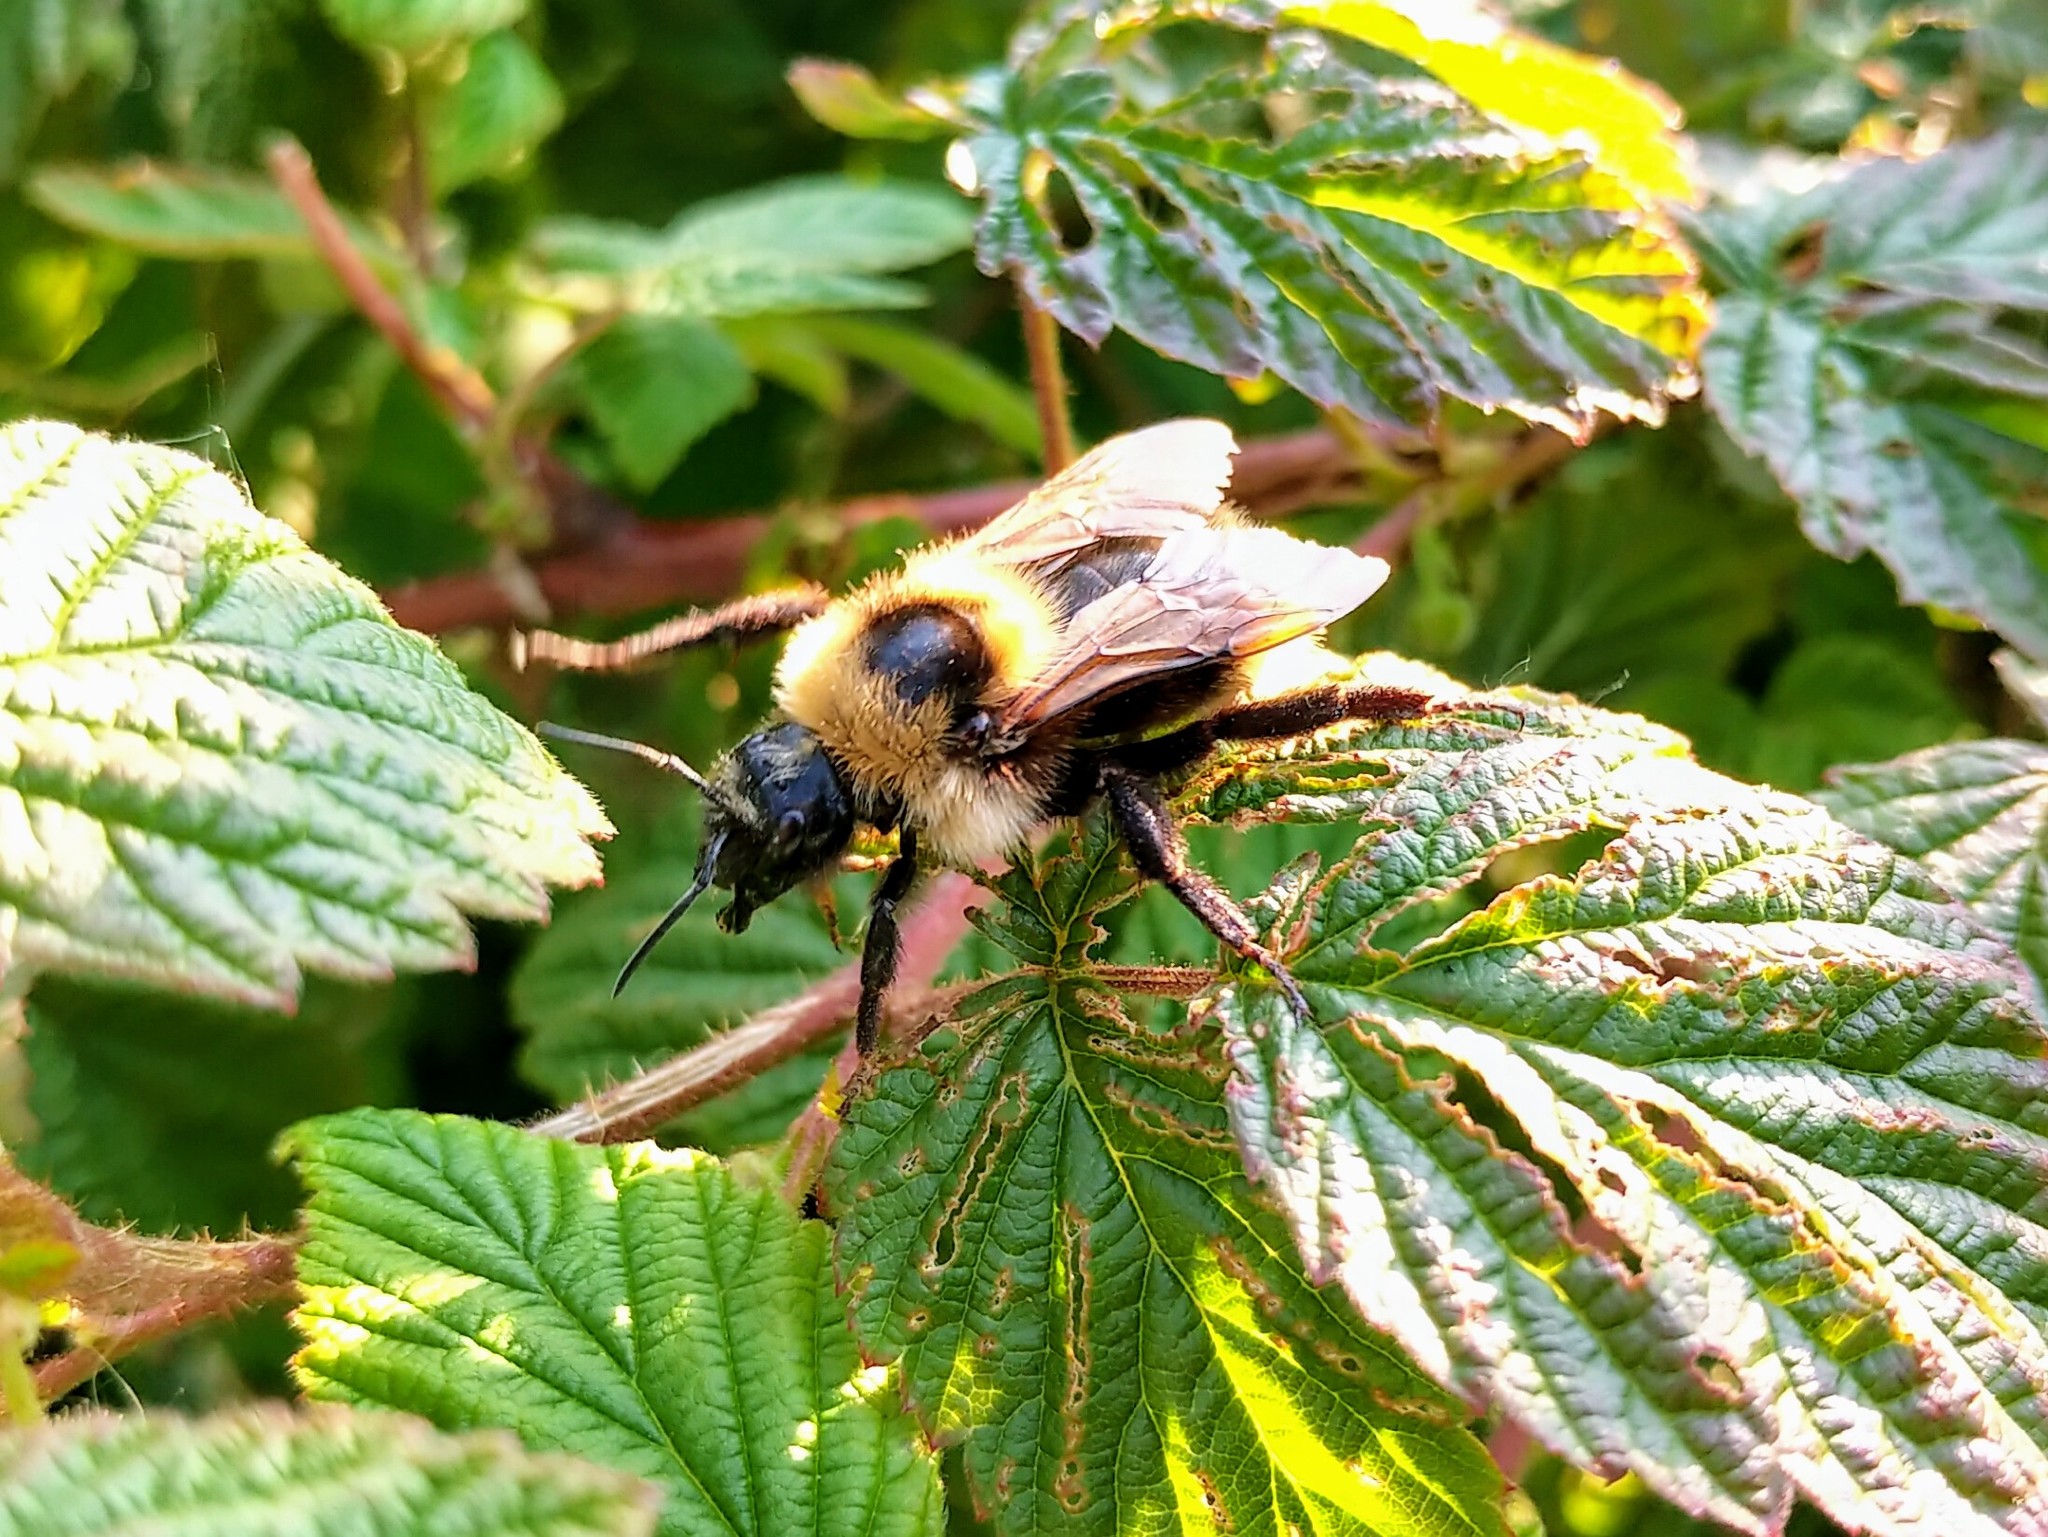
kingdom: Animalia
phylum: Arthropoda
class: Insecta
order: Hymenoptera
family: Apidae
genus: Bombus
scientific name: Bombus insularis
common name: Indiscriminate cuckoo bumble bee
